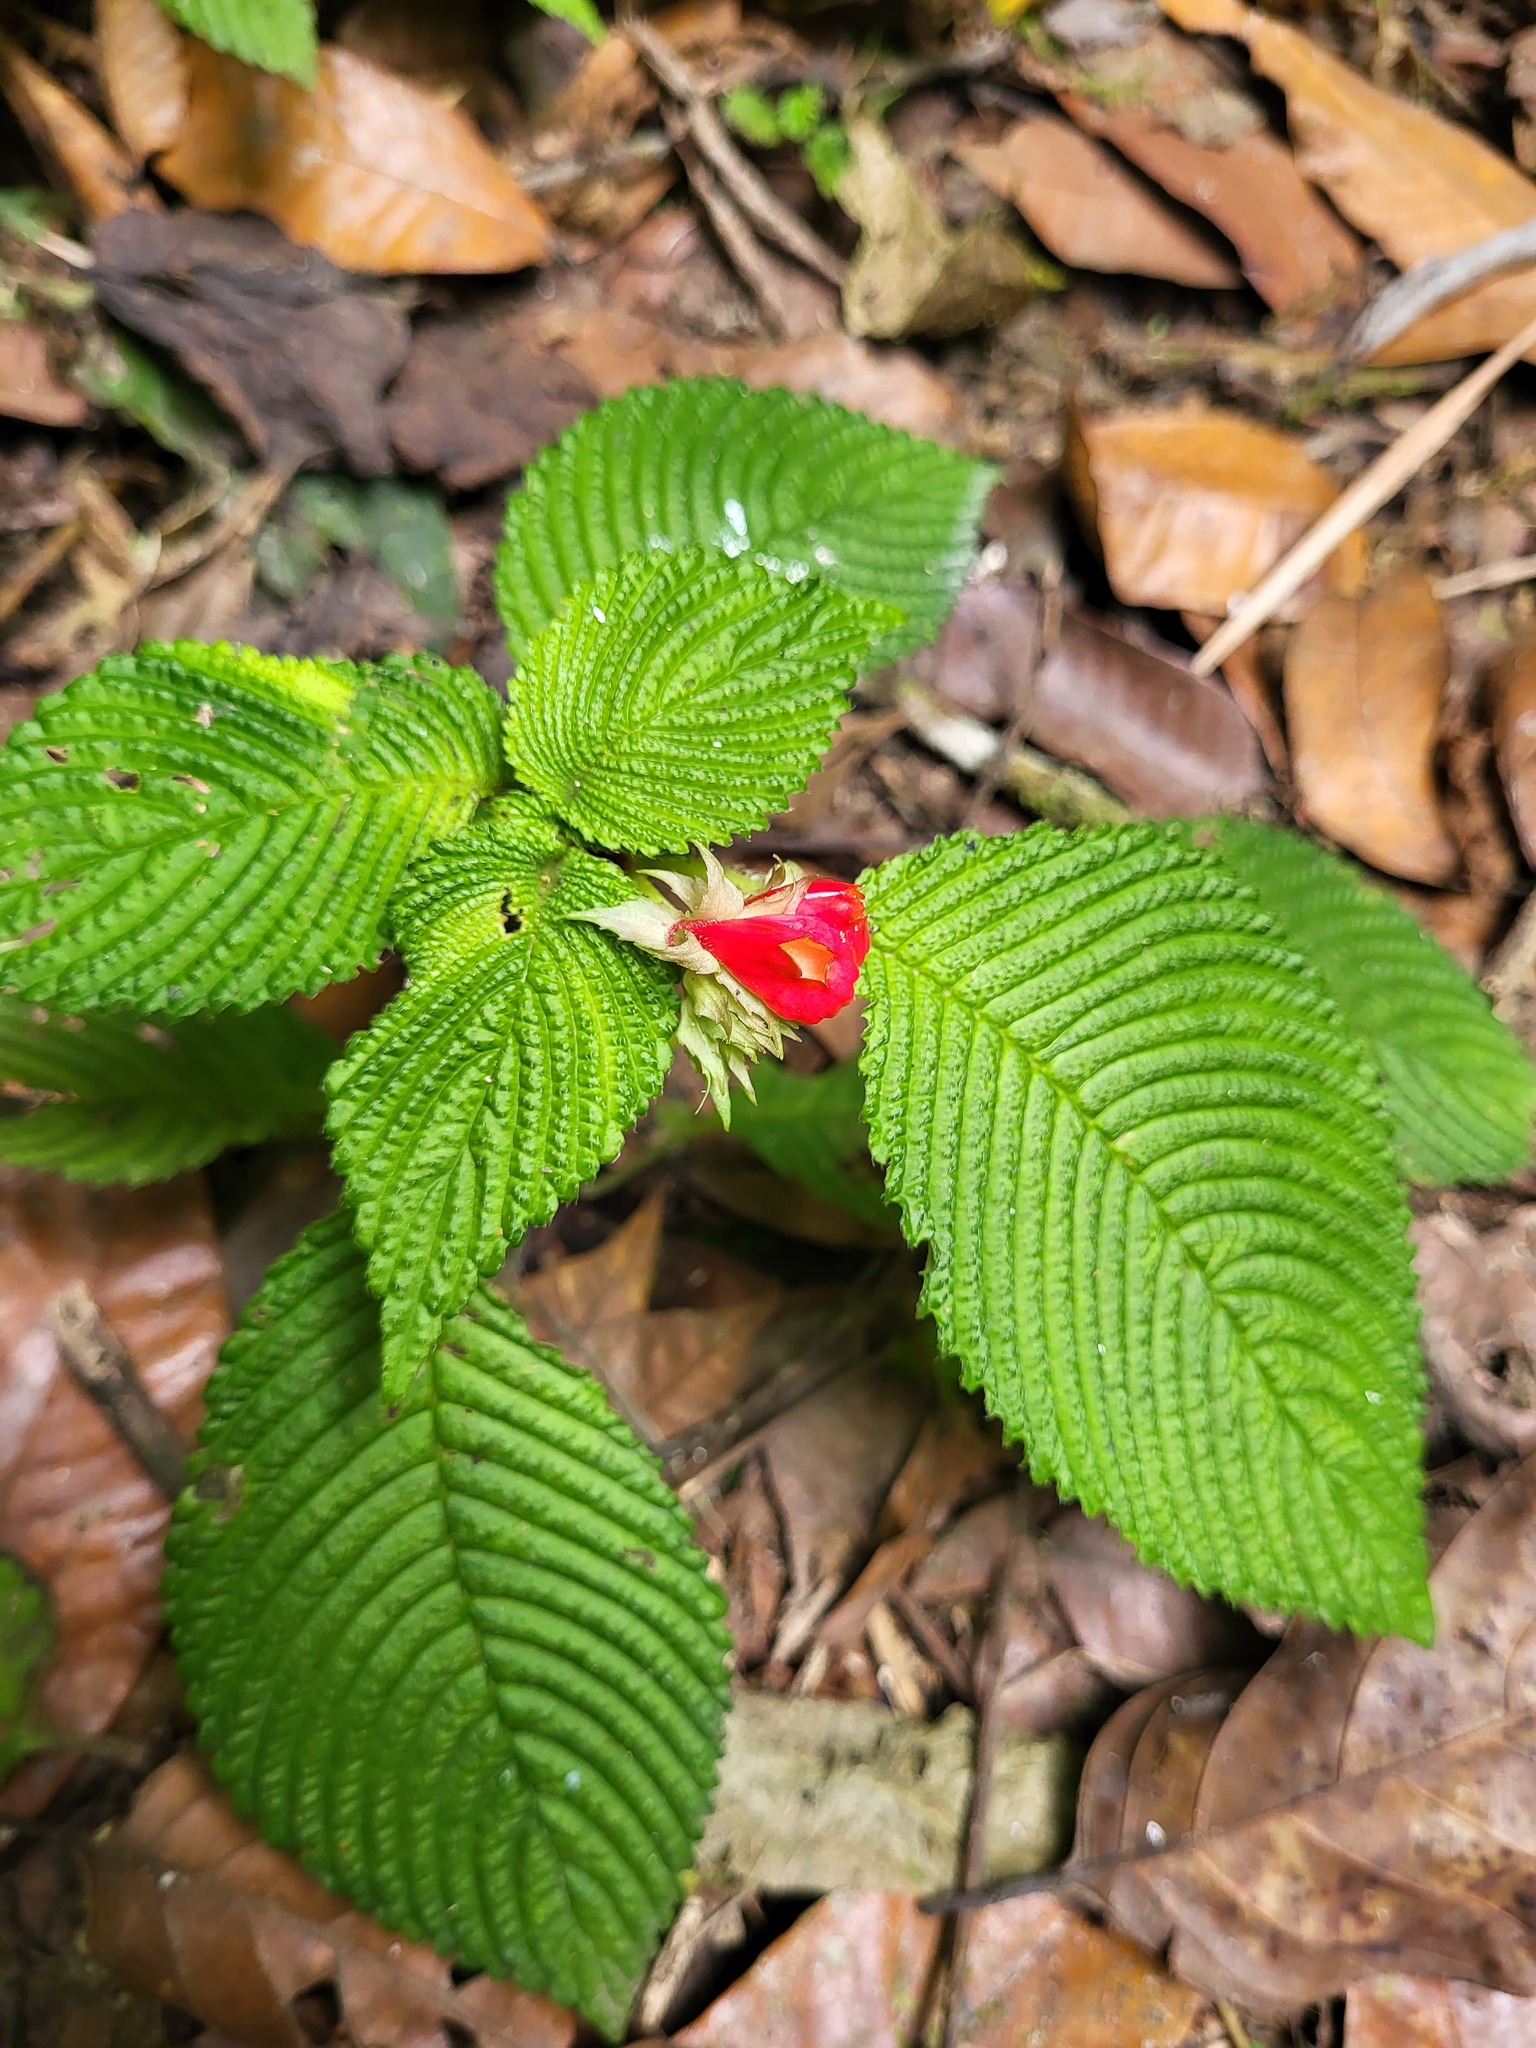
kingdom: Plantae
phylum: Tracheophyta
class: Magnoliopsida
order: Lamiales
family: Gesneriaceae
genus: Gasteranthus
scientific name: Gasteranthus quitensis
